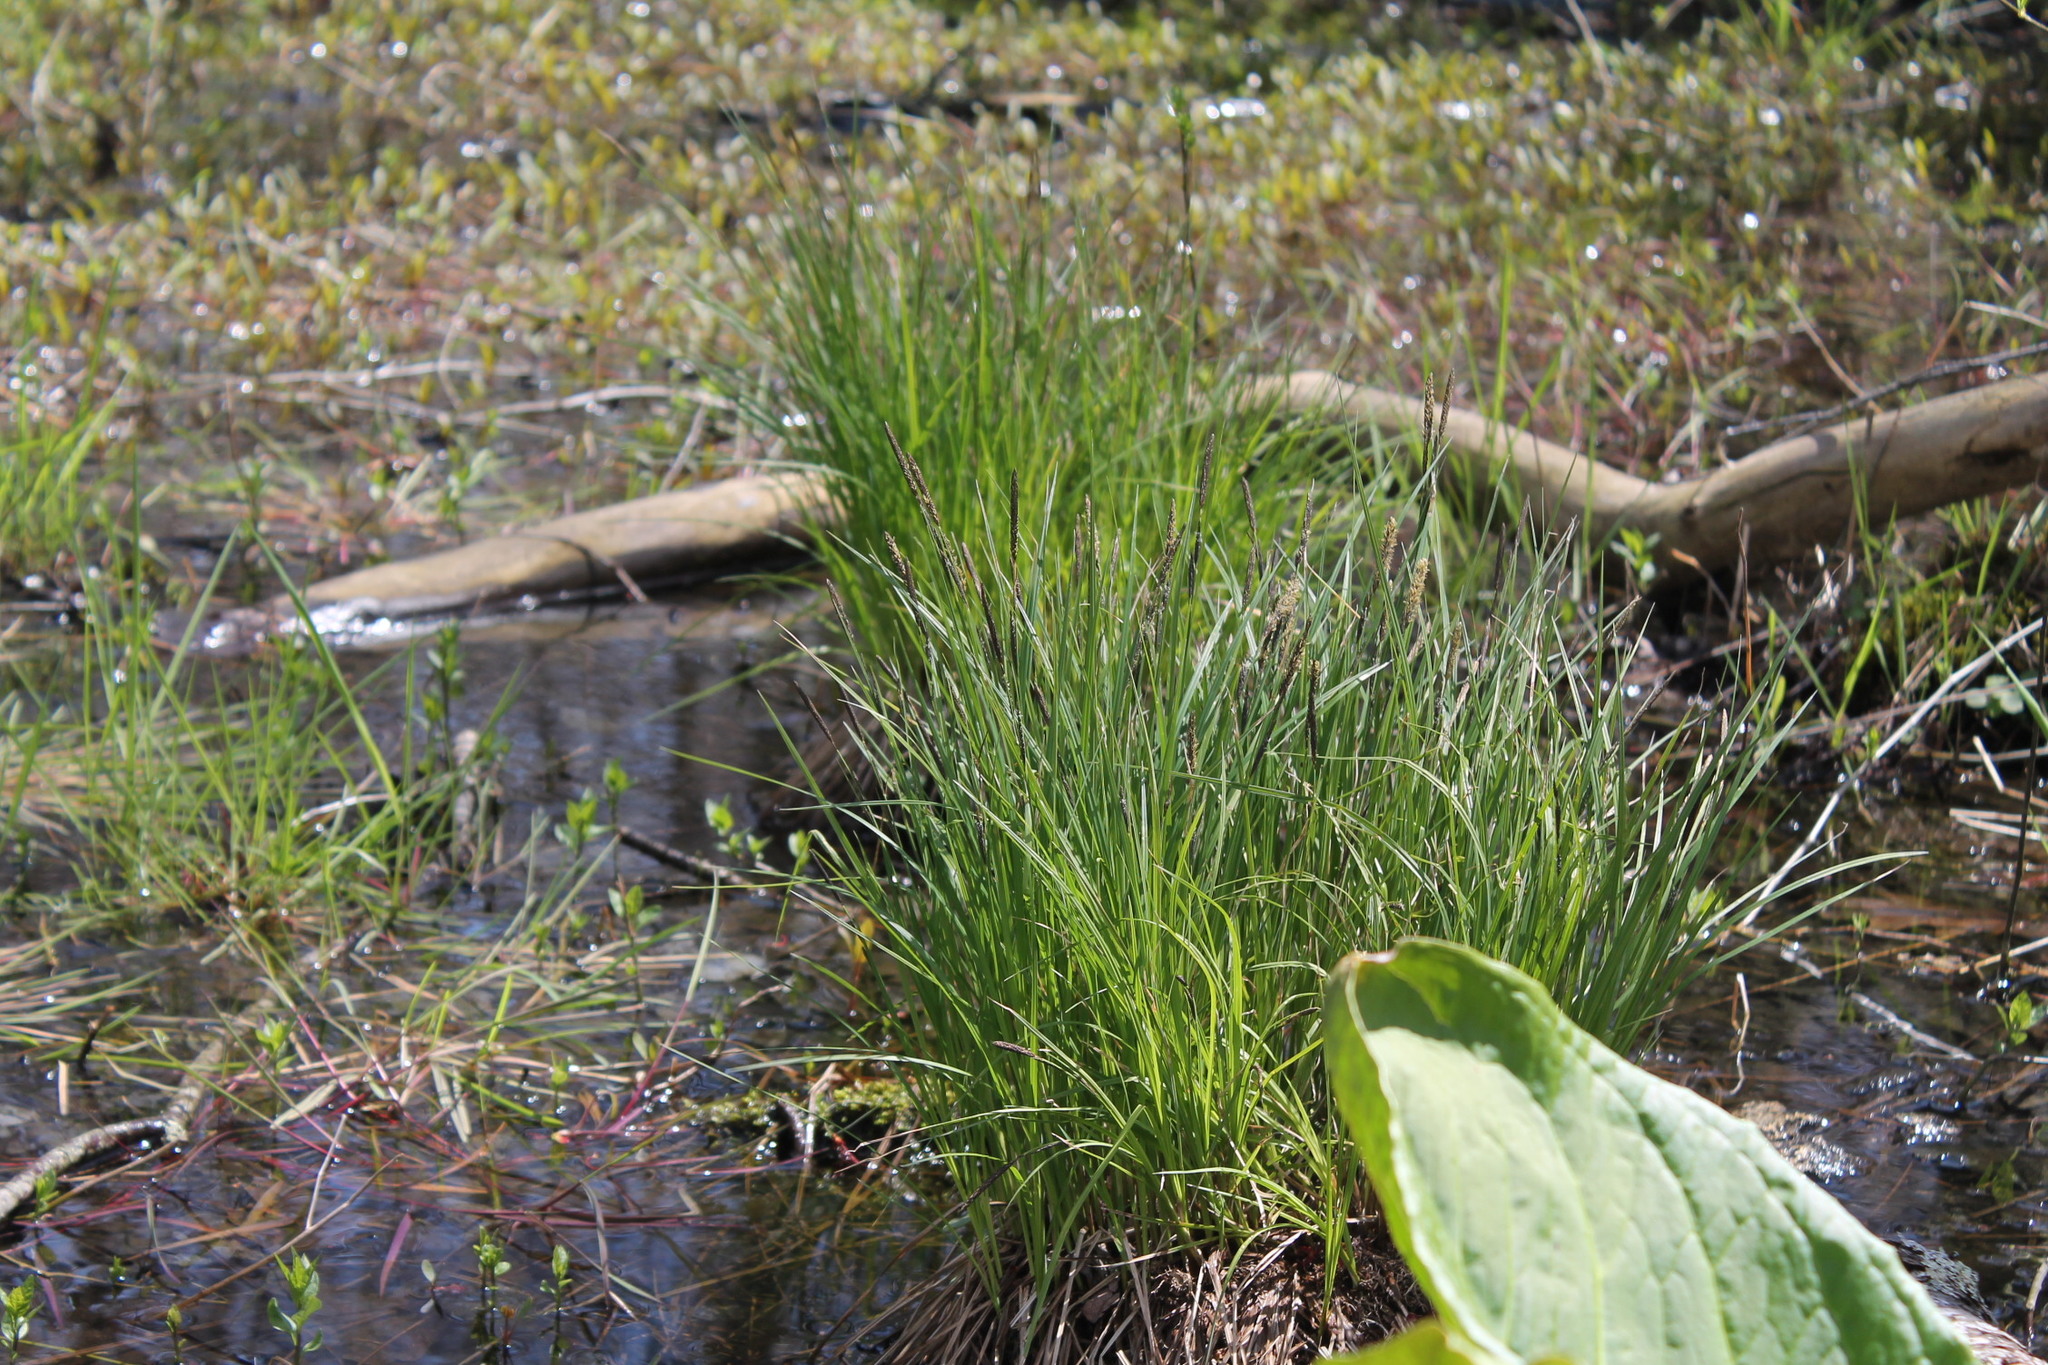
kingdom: Plantae
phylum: Tracheophyta
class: Liliopsida
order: Poales
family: Cyperaceae
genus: Carex
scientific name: Carex stricta
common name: Hummock sedge
